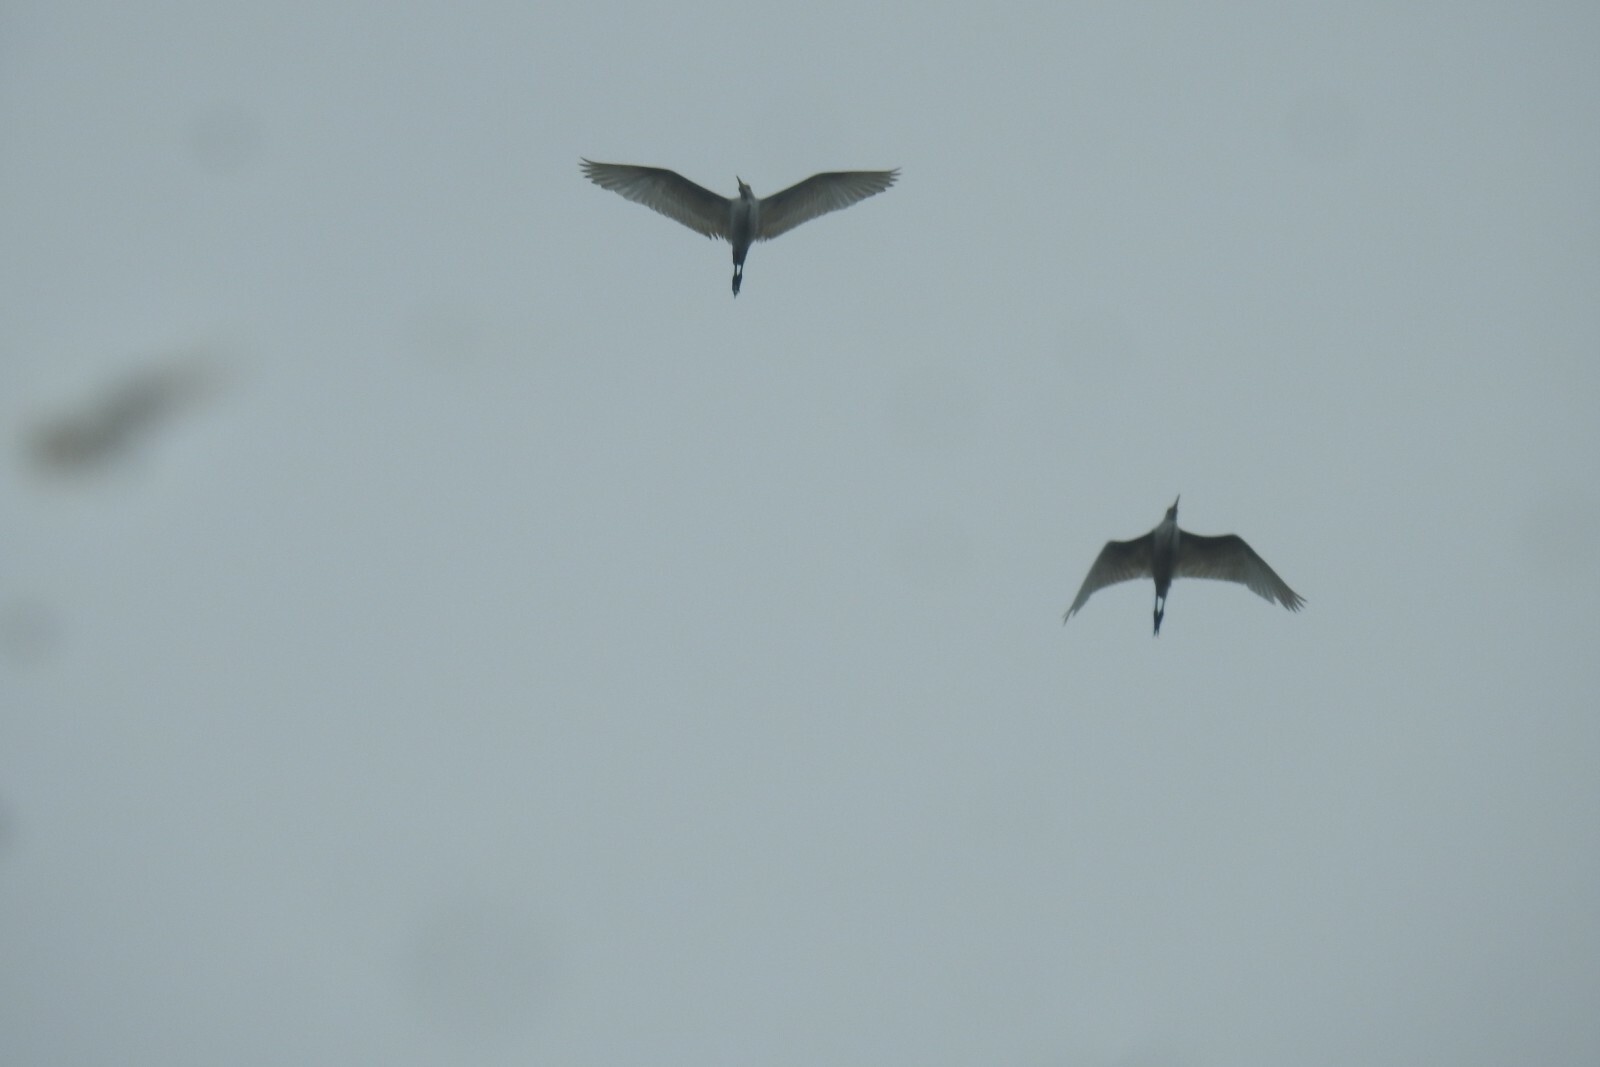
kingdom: Animalia
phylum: Chordata
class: Aves
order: Pelecaniformes
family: Ardeidae
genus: Bubulcus
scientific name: Bubulcus coromandus
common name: Eastern cattle egret
